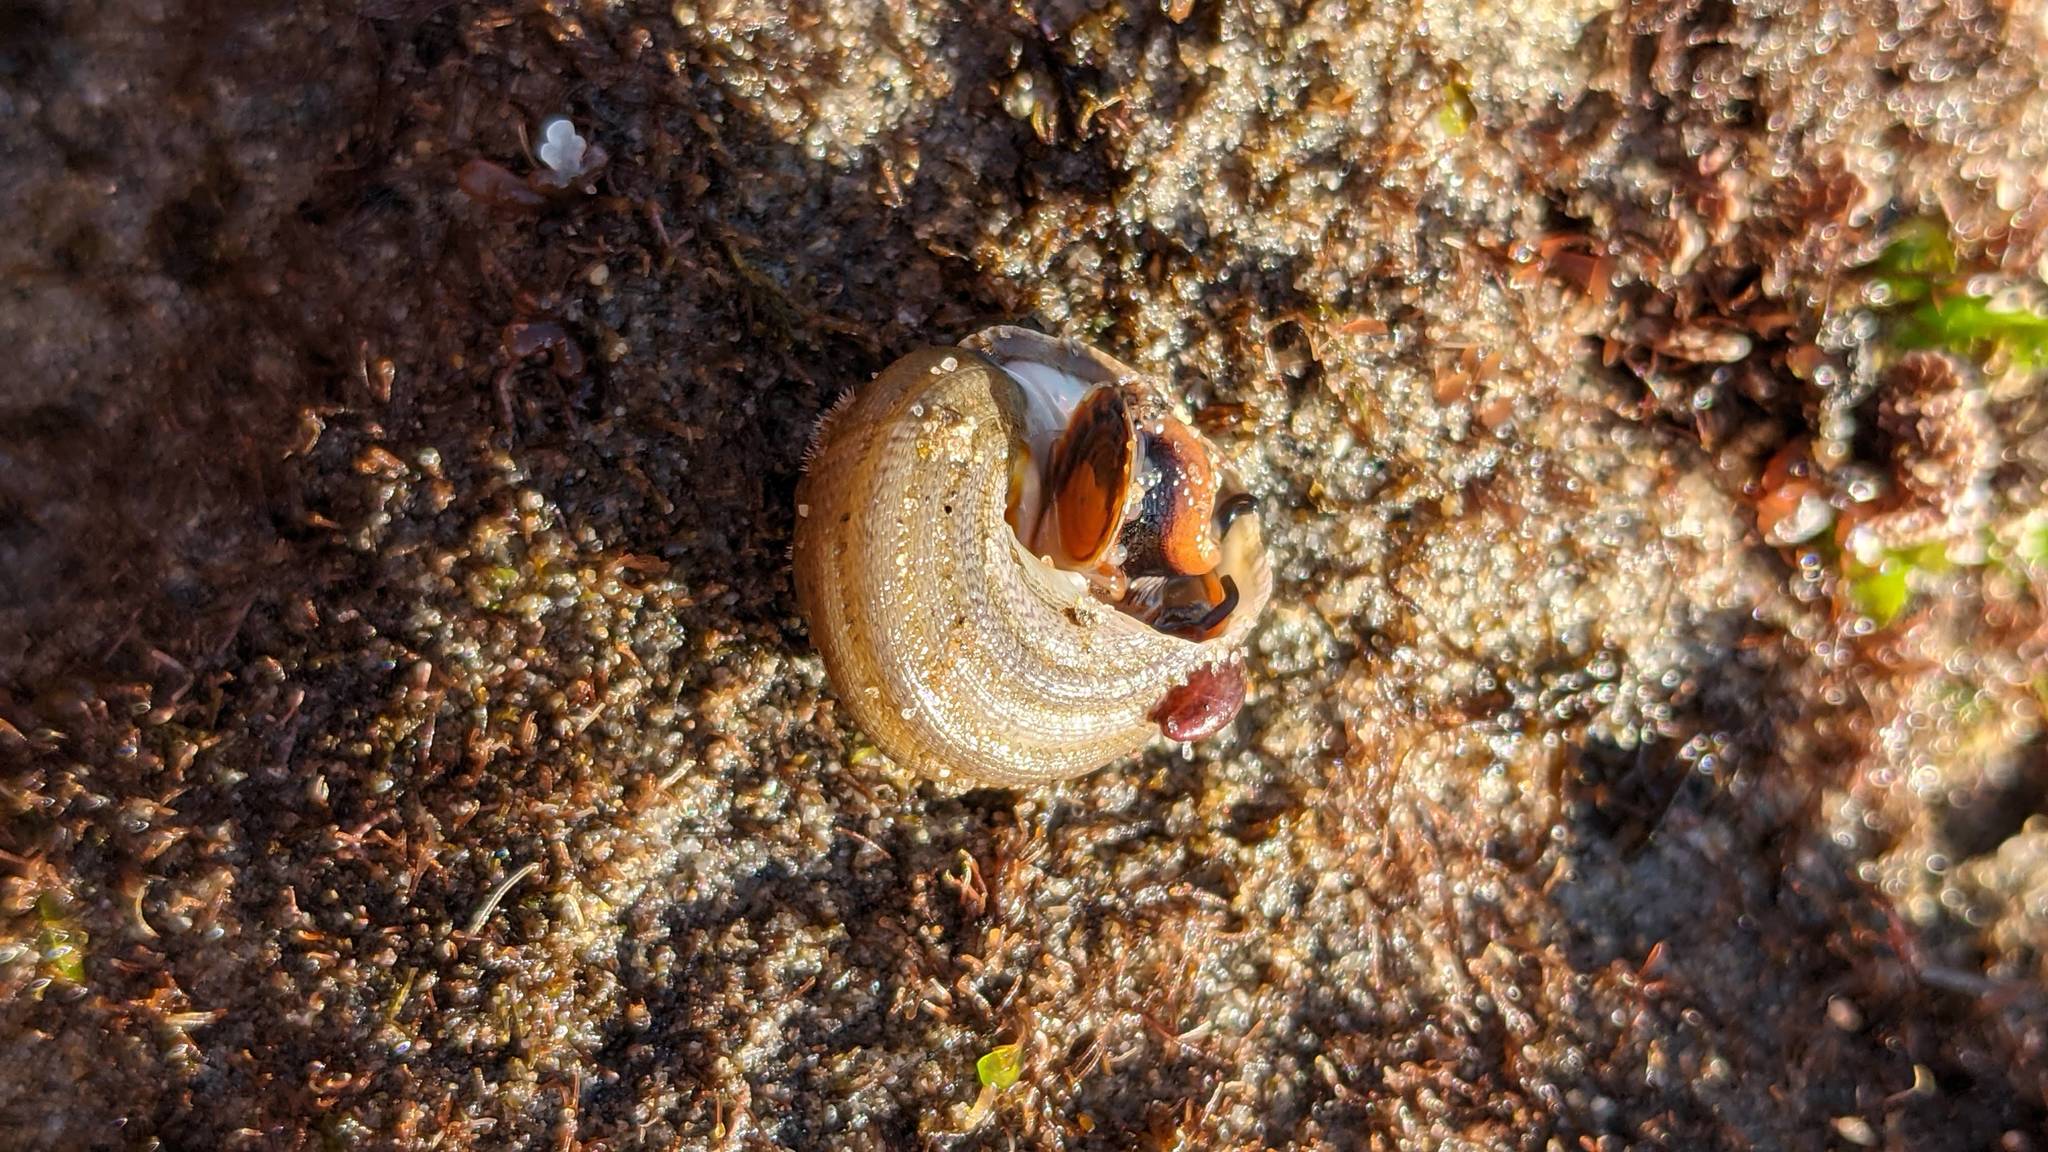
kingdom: Animalia
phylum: Mollusca
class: Gastropoda
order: Trochida
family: Tegulidae
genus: Tegula
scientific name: Tegula aureotincta
